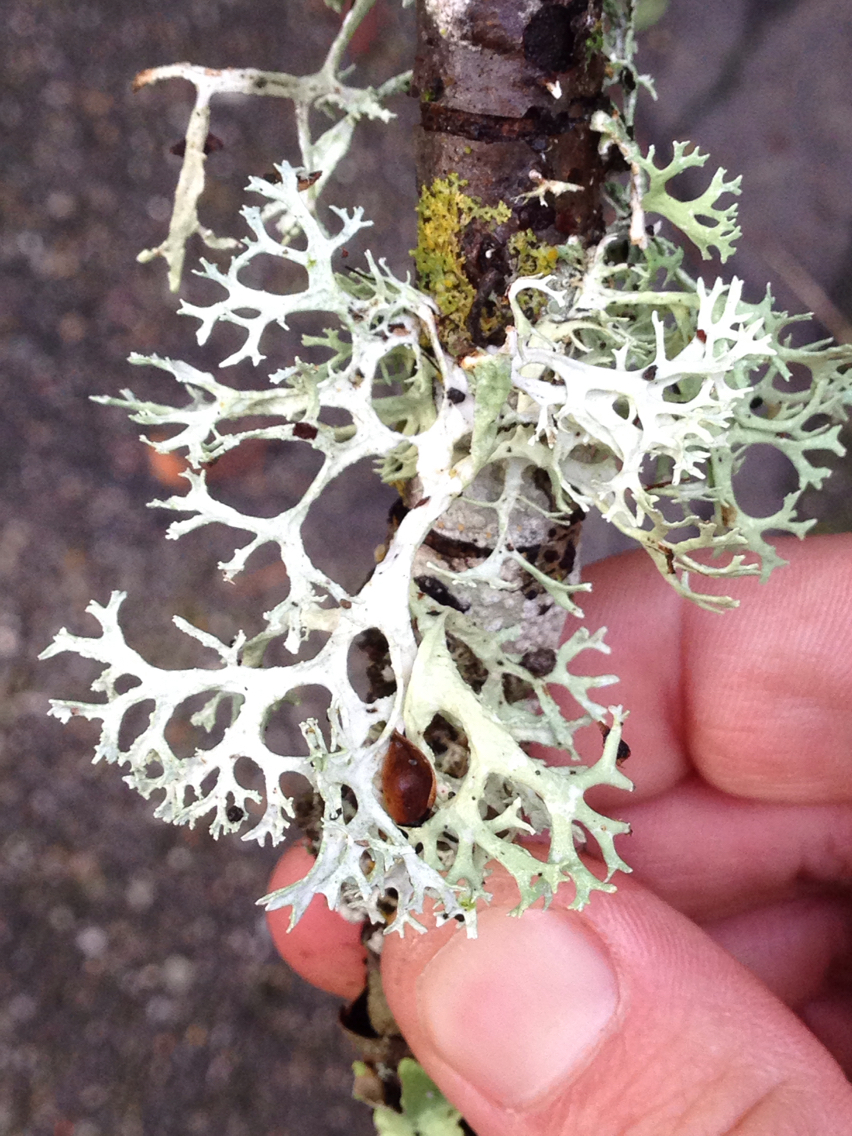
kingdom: Fungi
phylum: Ascomycota
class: Lecanoromycetes
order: Lecanorales
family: Parmeliaceae
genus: Evernia
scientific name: Evernia prunastri
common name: Oak moss
